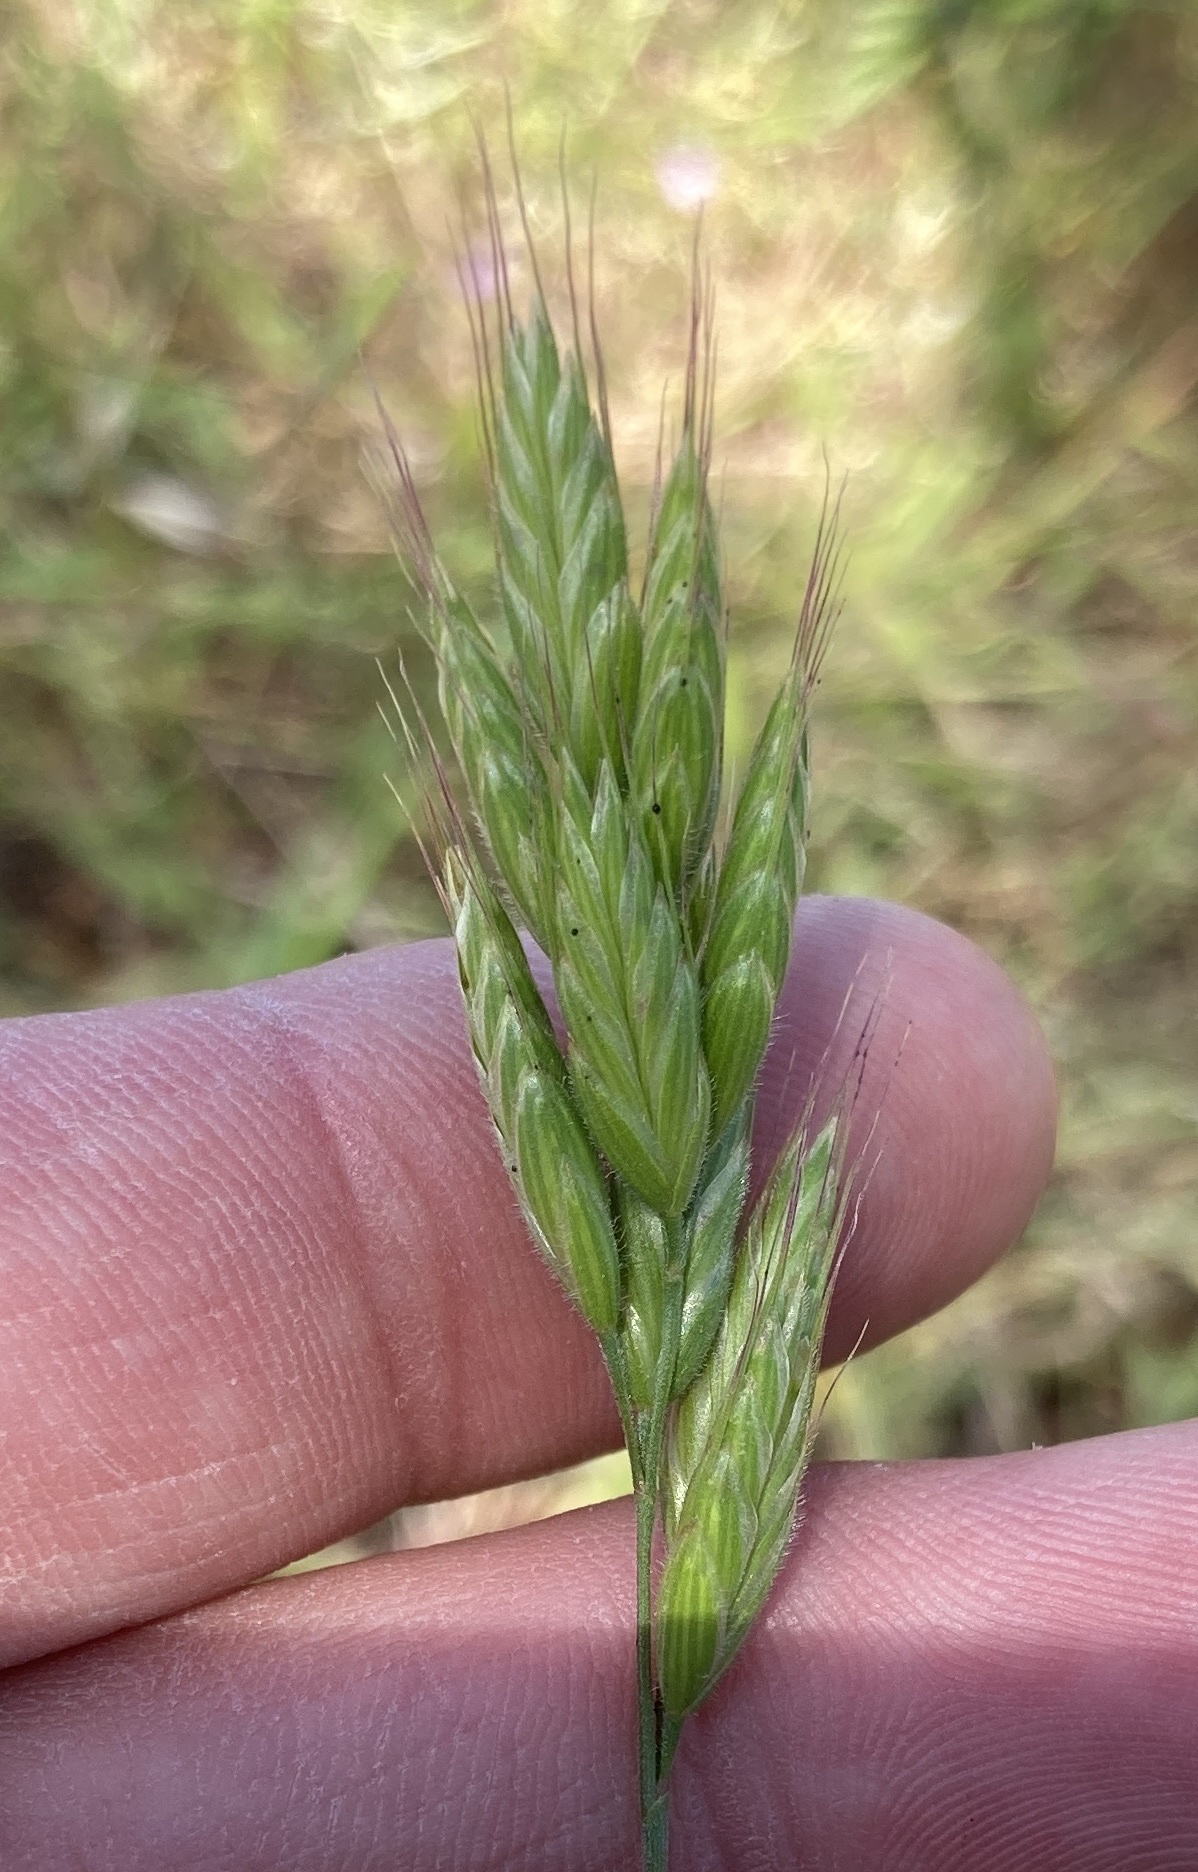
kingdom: Plantae
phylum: Tracheophyta
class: Liliopsida
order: Poales
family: Poaceae
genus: Bromus
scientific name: Bromus hordeaceus
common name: Soft brome
